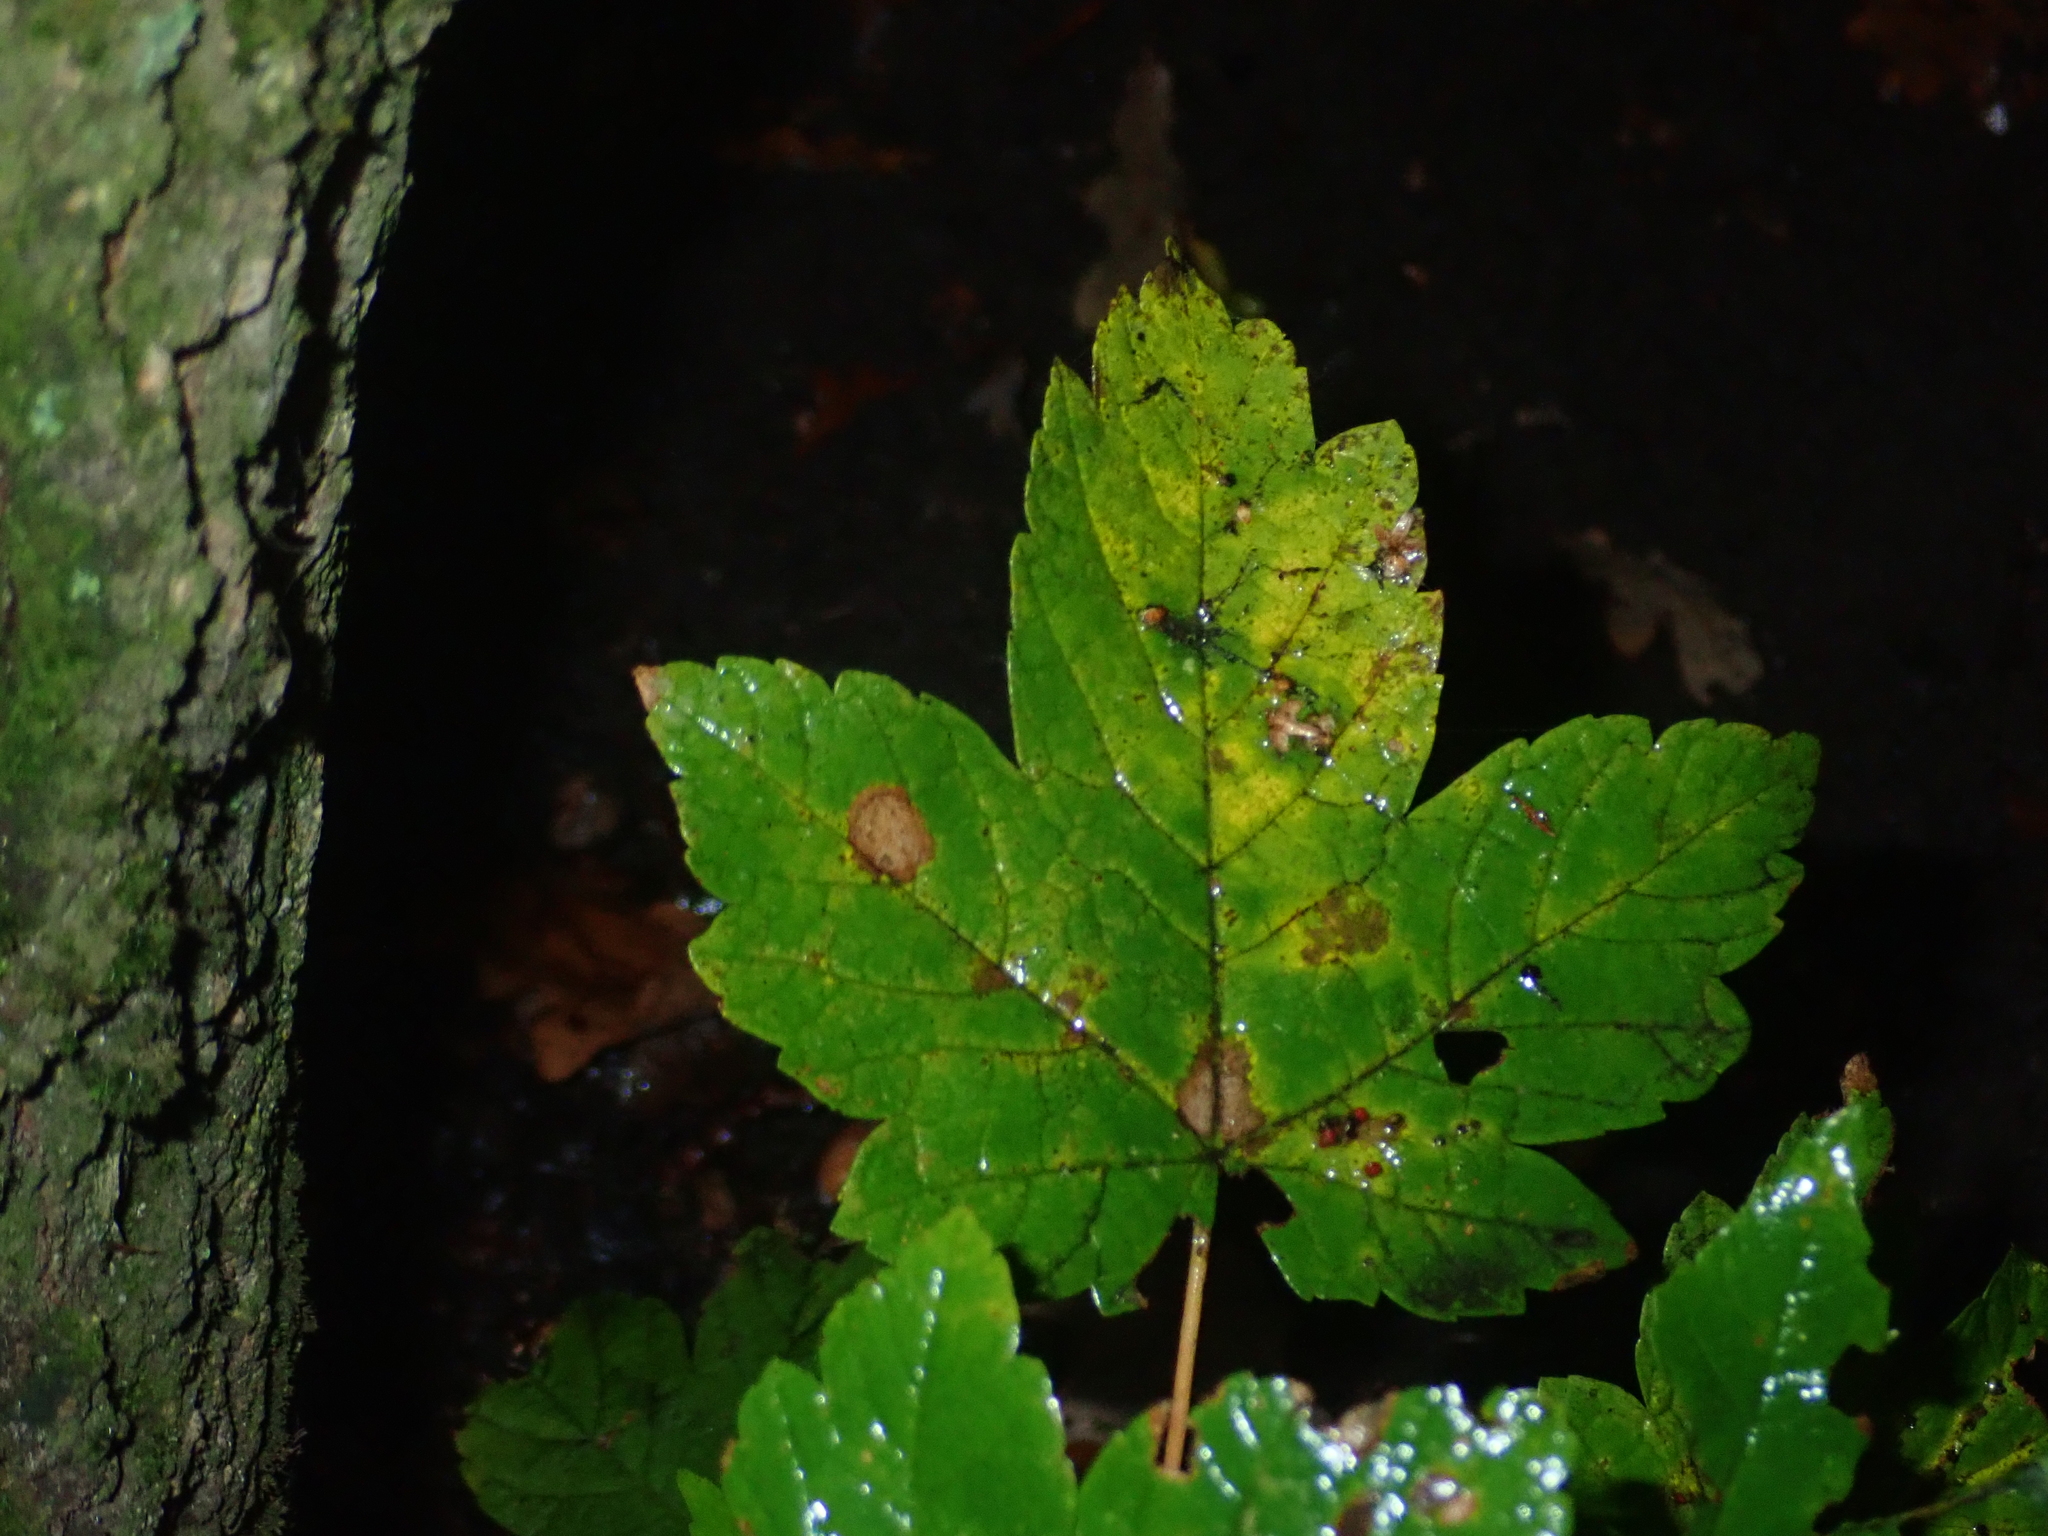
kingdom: Plantae
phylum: Tracheophyta
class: Magnoliopsida
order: Sapindales
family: Sapindaceae
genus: Acer
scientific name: Acer pseudoplatanus
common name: Sycamore
